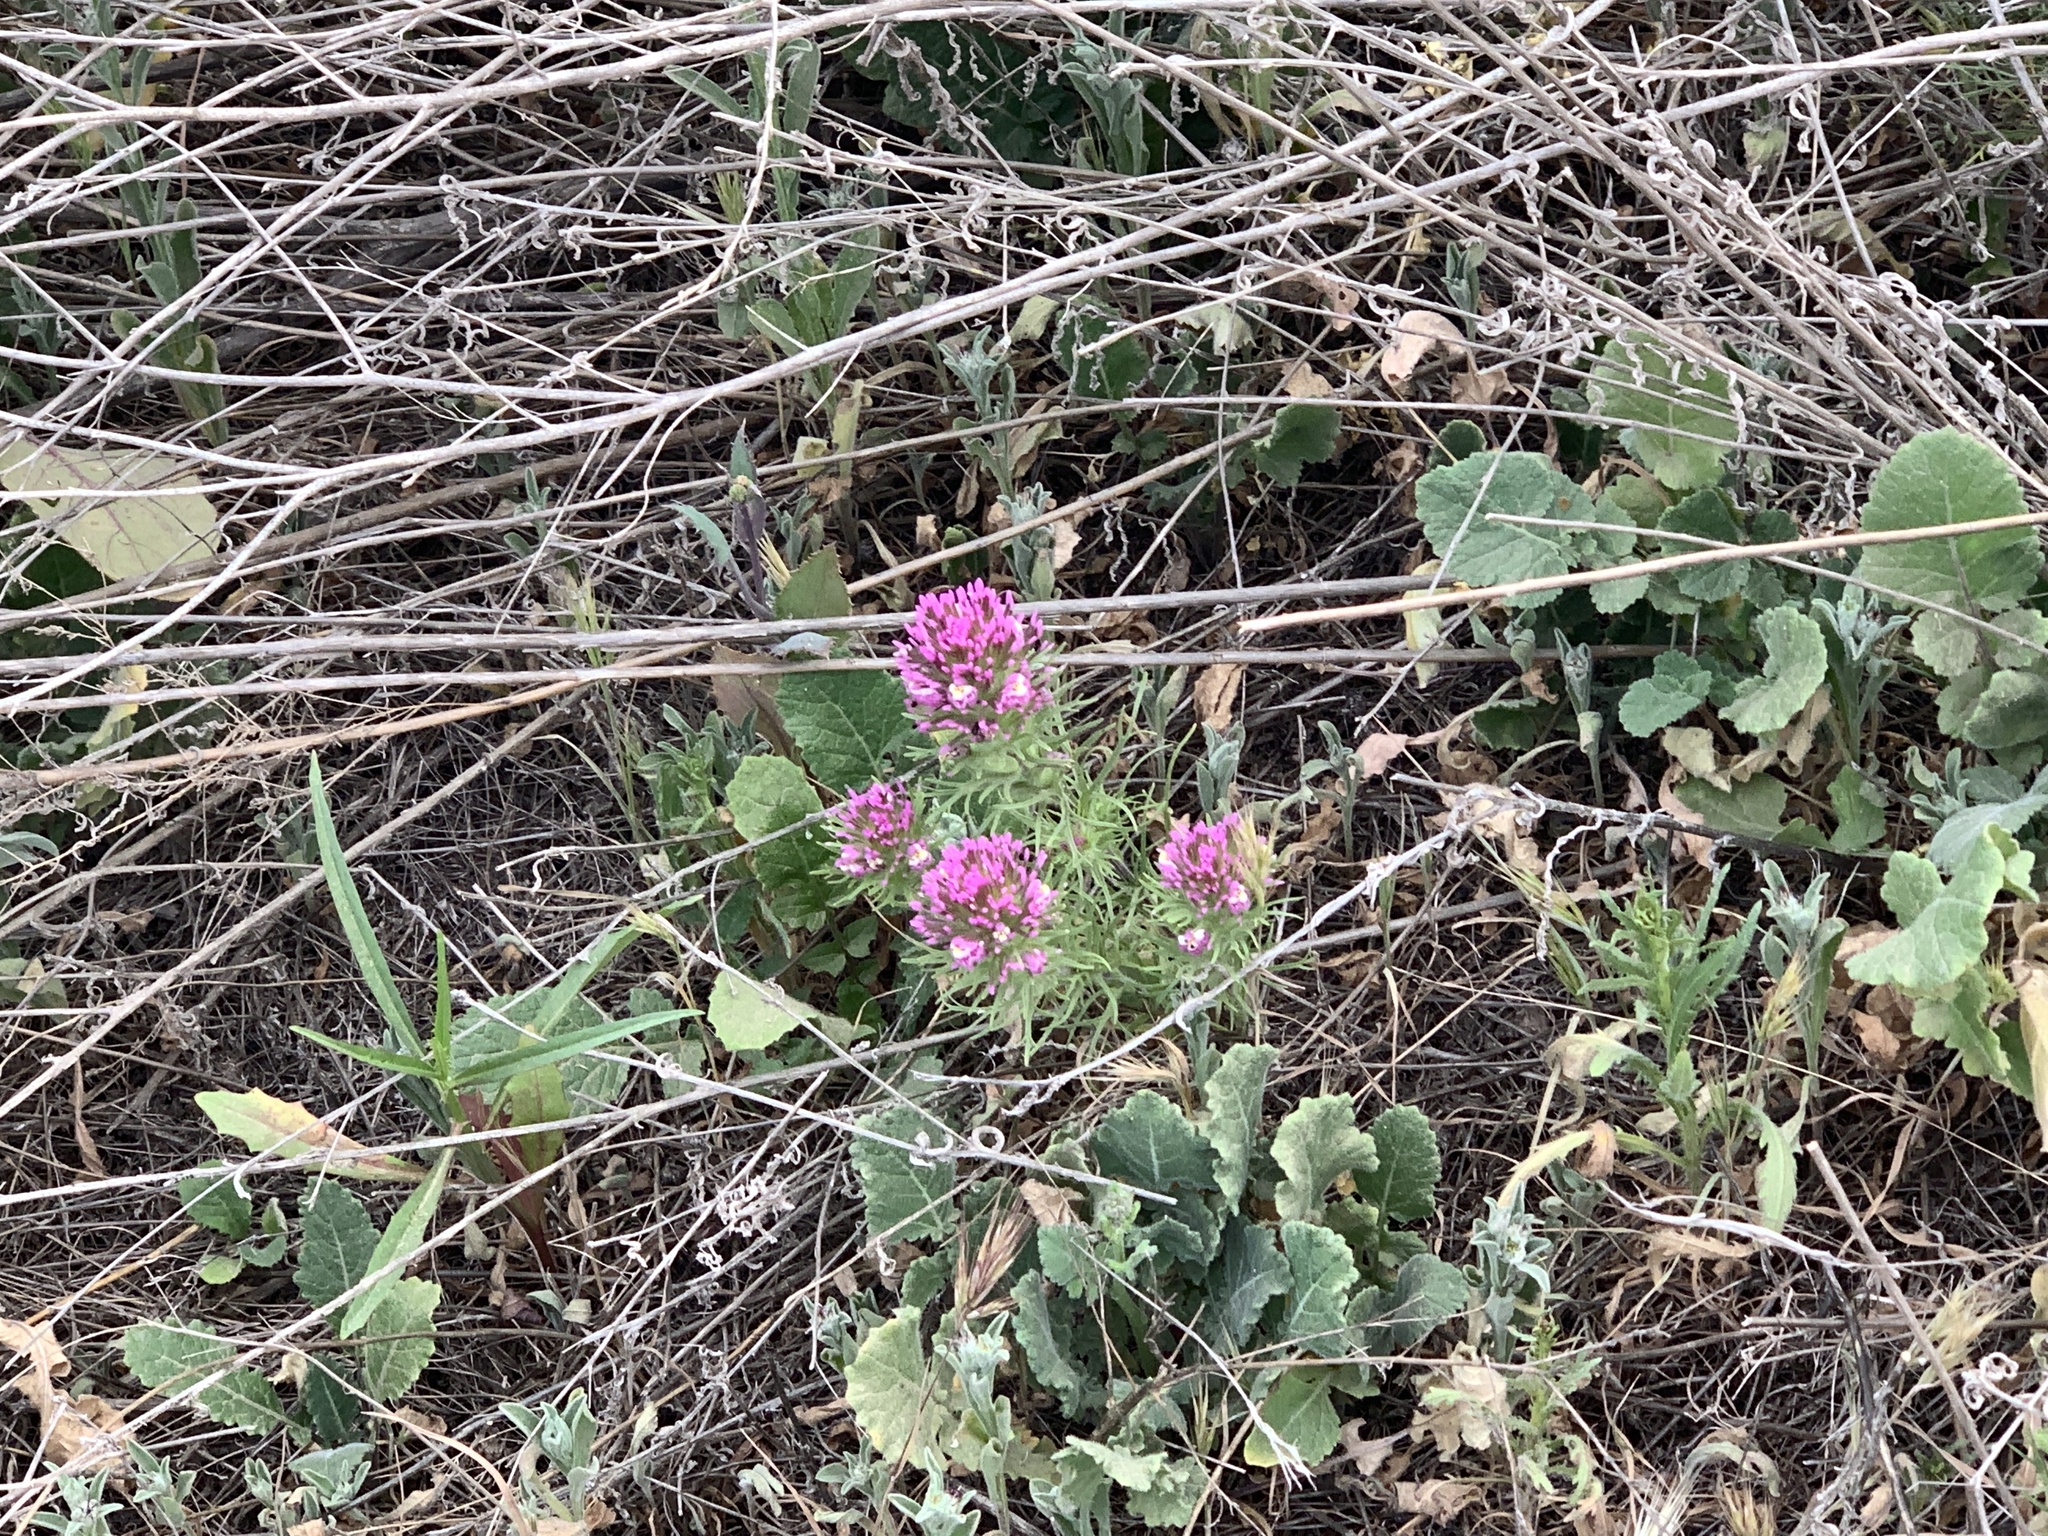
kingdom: Plantae
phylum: Tracheophyta
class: Magnoliopsida
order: Lamiales
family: Orobanchaceae
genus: Castilleja
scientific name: Castilleja exserta
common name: Purple owl-clover
